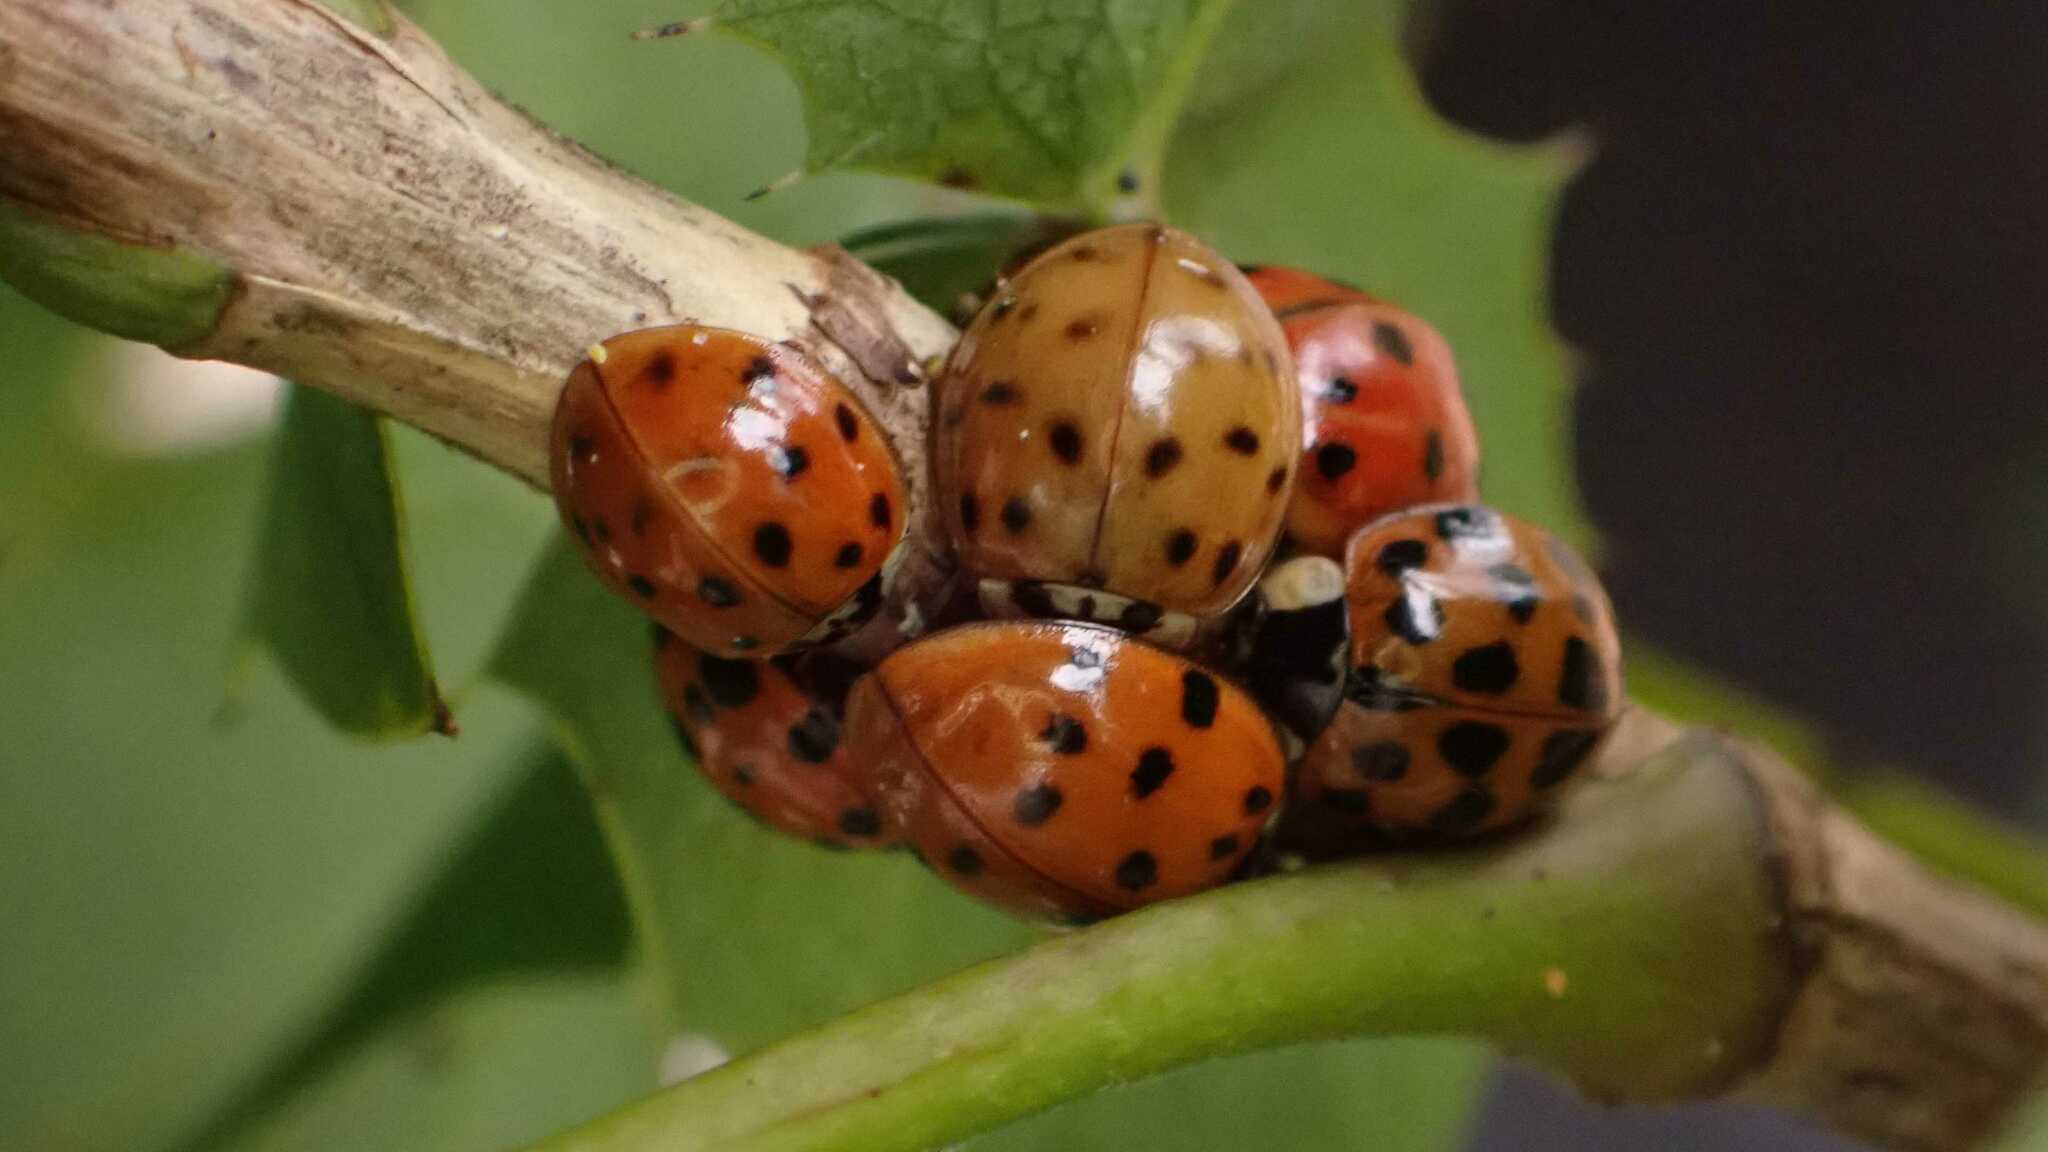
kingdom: Animalia
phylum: Arthropoda
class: Insecta
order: Coleoptera
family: Coccinellidae
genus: Harmonia
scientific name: Harmonia axyridis
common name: Harlequin ladybird
